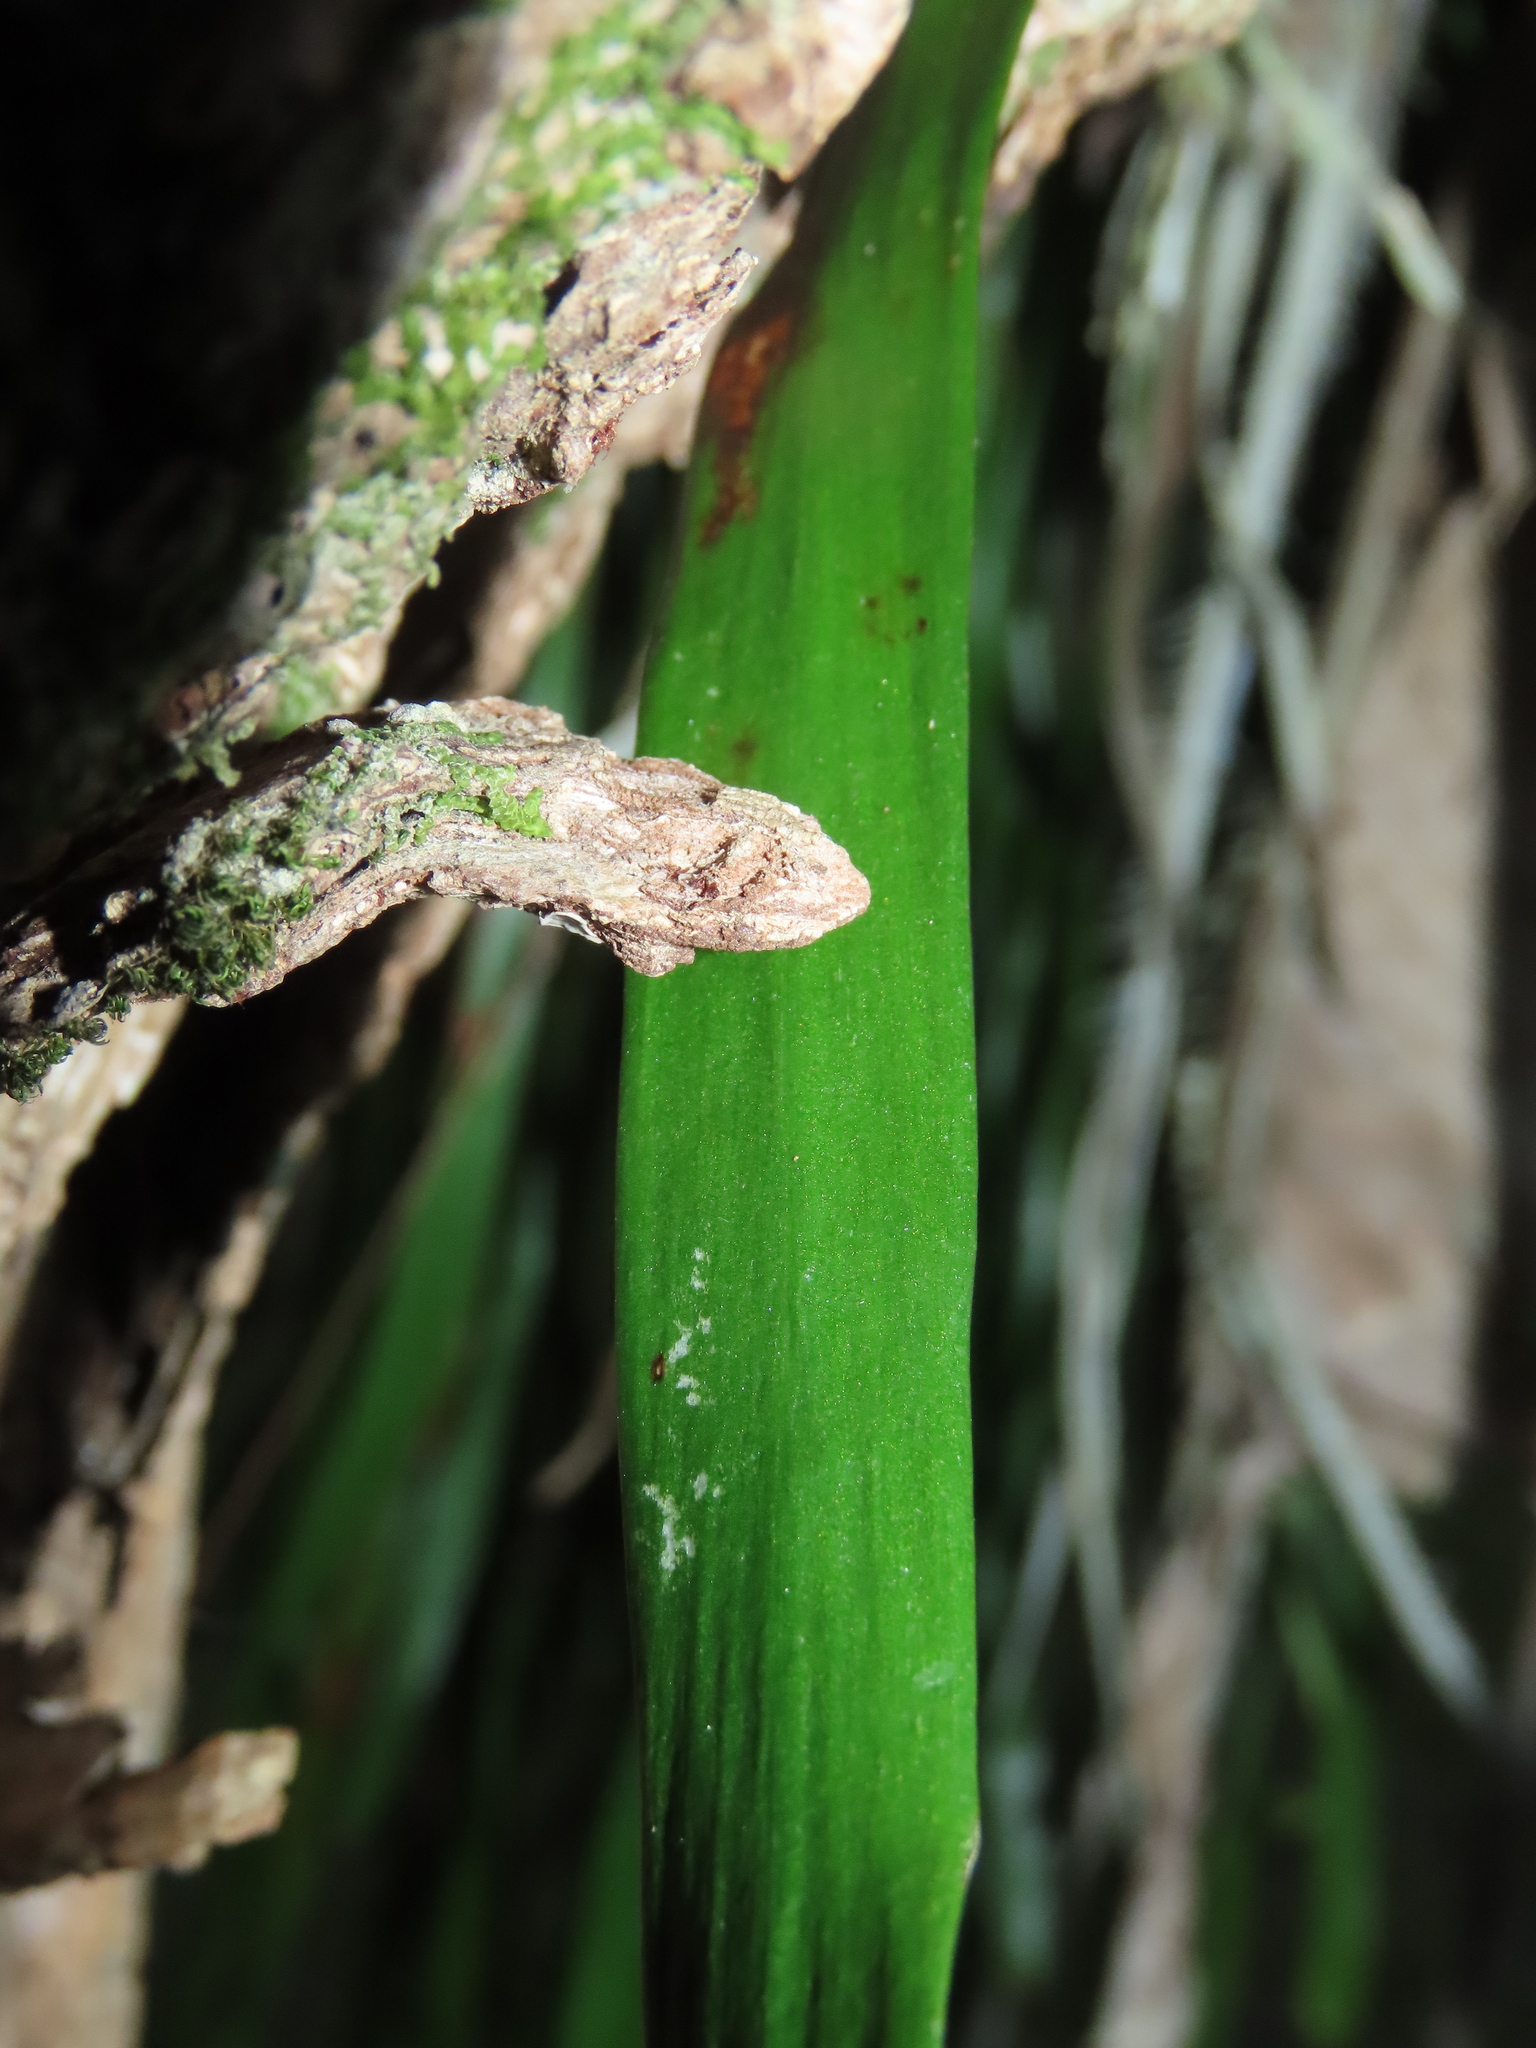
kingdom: Plantae
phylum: Tracheophyta
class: Polypodiopsida
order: Polypodiales
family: Pteridaceae
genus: Haplopteris
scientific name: Haplopteris elongata
